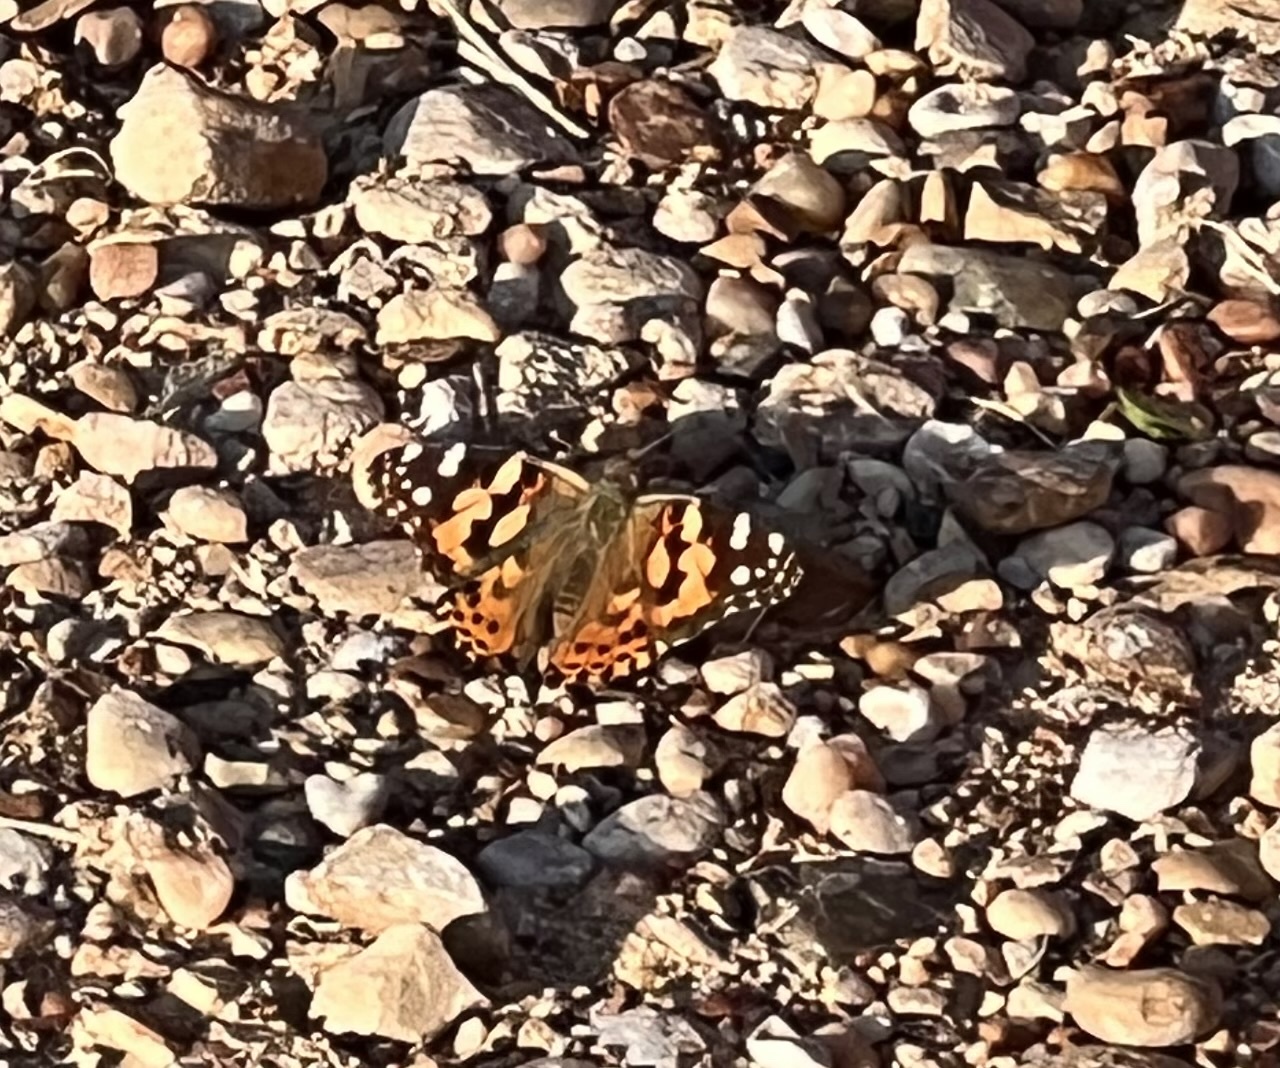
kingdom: Animalia
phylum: Arthropoda
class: Insecta
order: Lepidoptera
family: Nymphalidae
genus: Vanessa
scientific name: Vanessa cardui
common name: Painted lady
